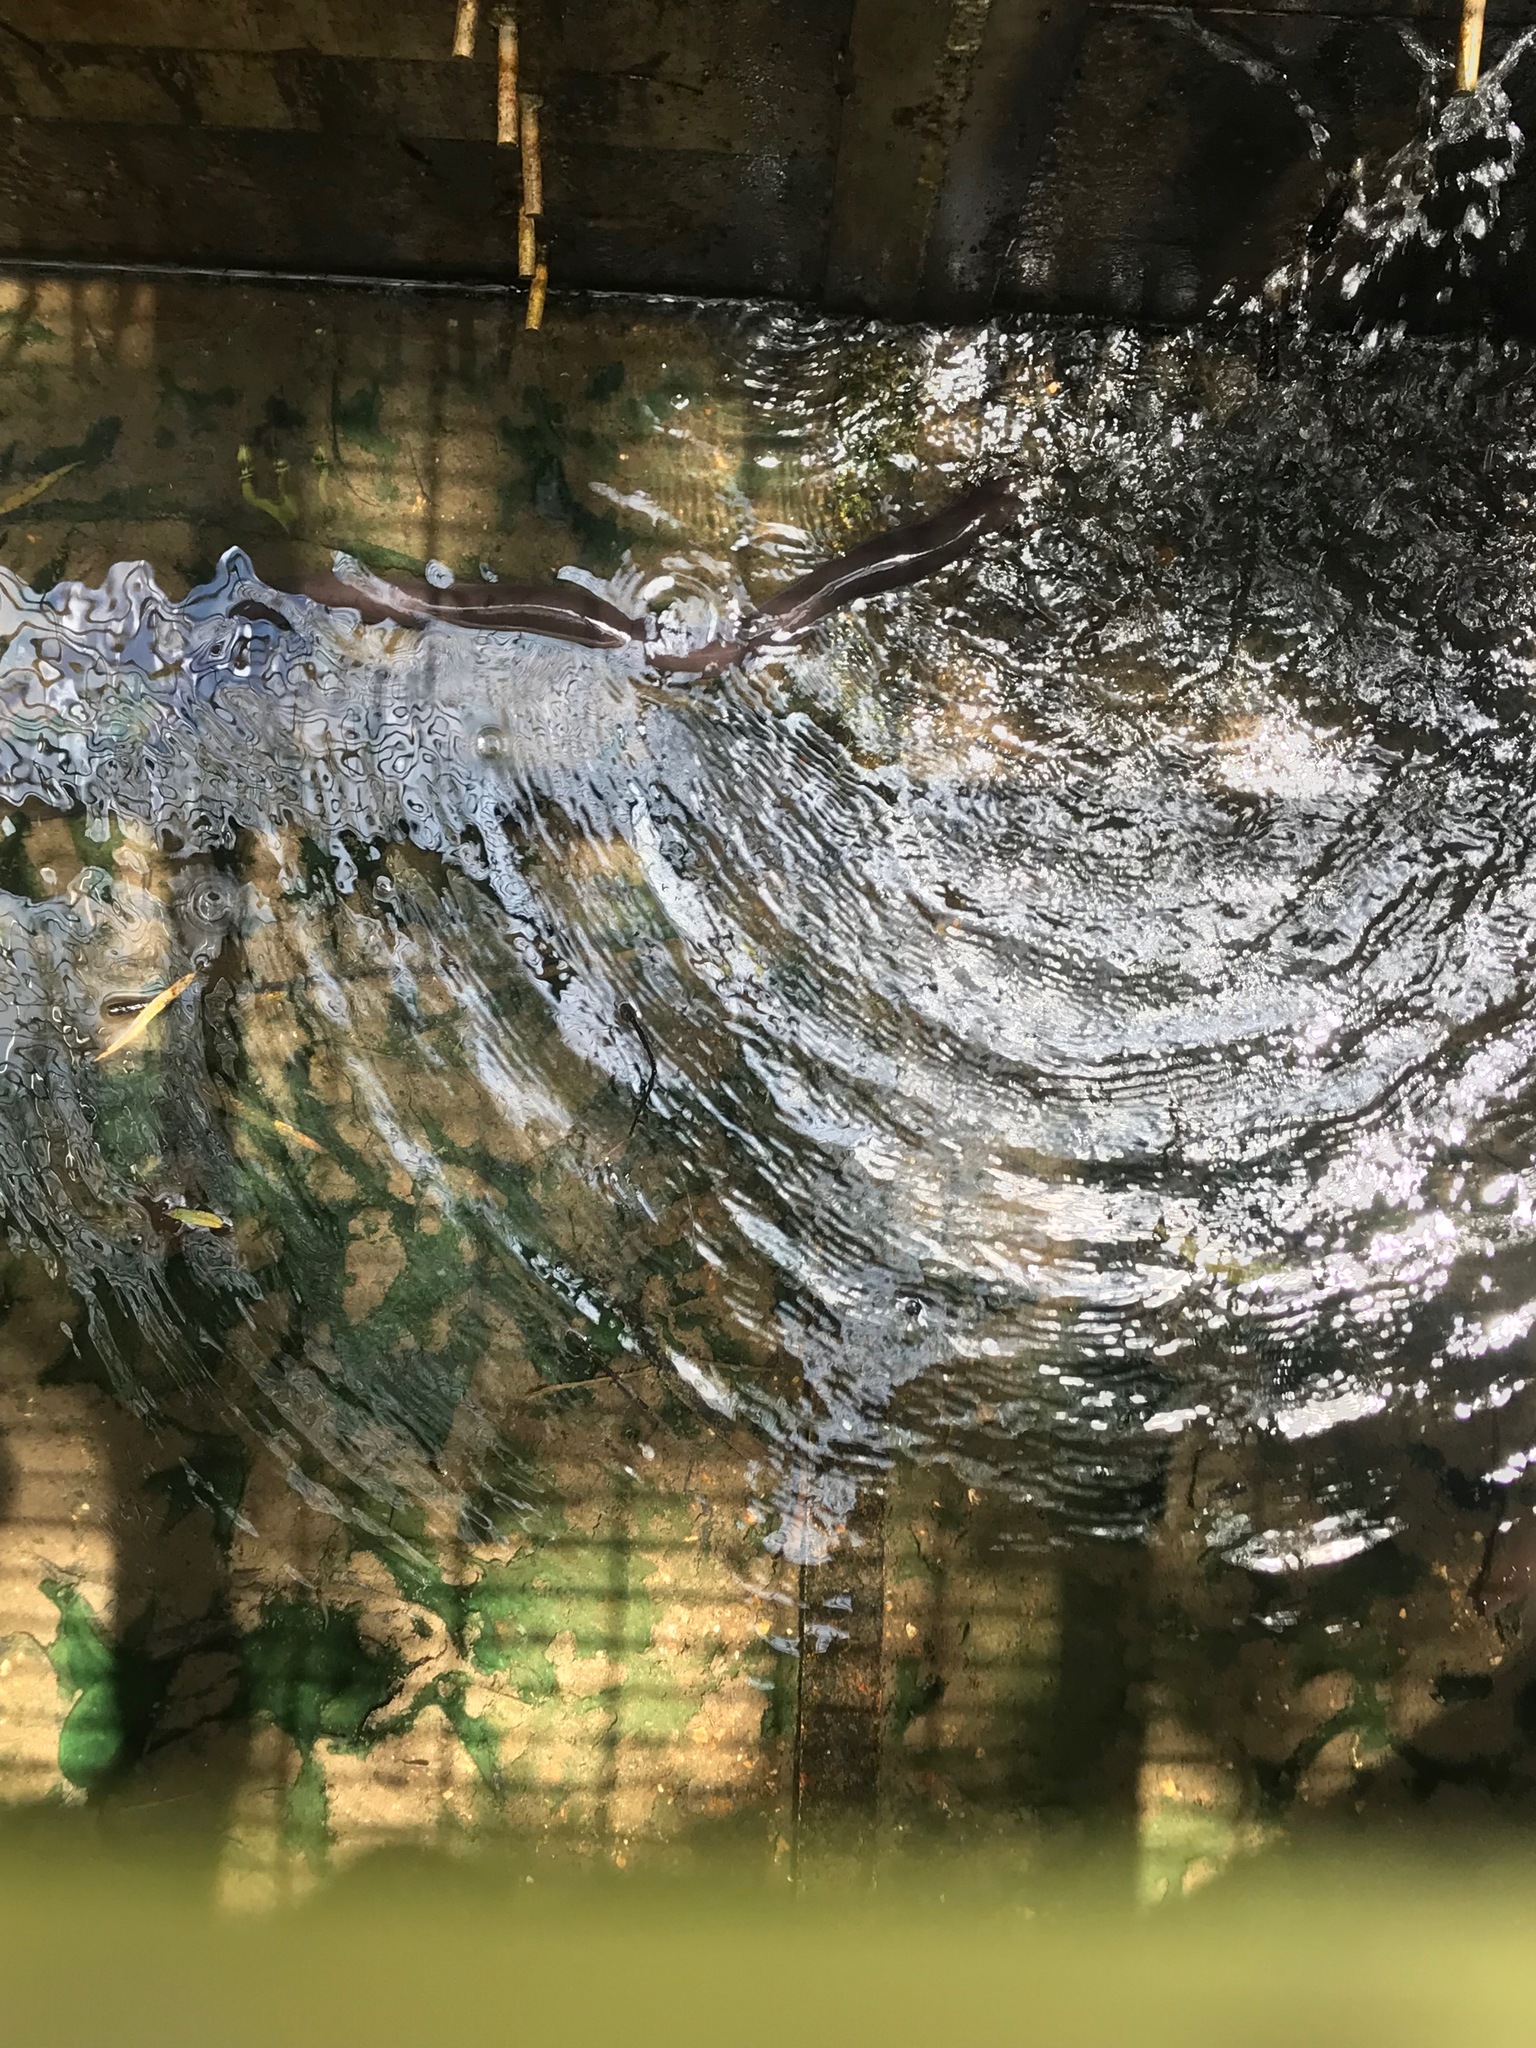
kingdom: Animalia
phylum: Chordata
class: Amphibia
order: Caudata
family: Amphiumidae
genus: Amphiuma
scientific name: Amphiuma tridactylum
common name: Three-toed amphiuma
